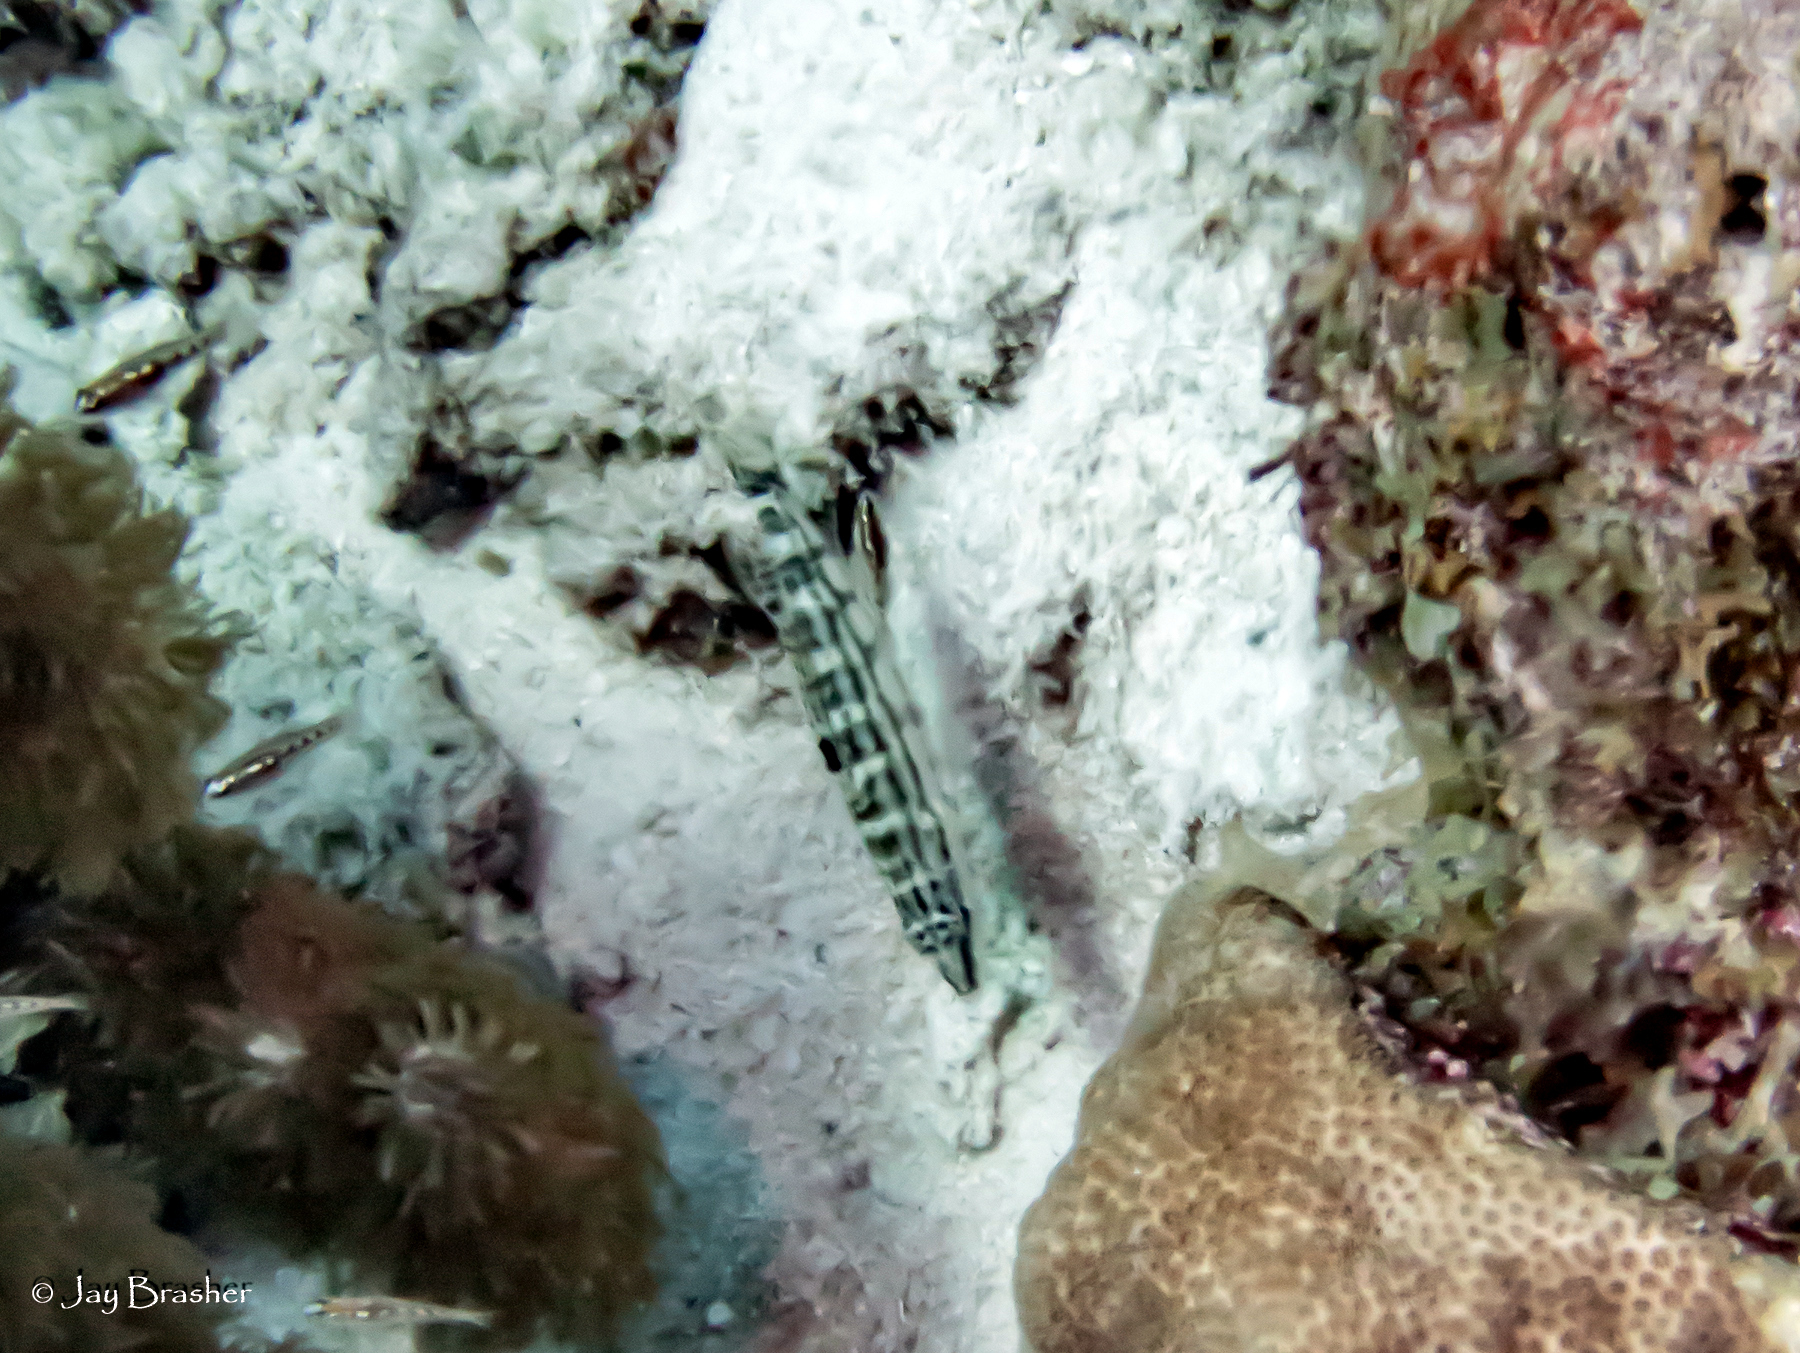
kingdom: Animalia
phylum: Chordata
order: Perciformes
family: Serranidae
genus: Serranus
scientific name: Serranus tigrinus
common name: Harlequin bass
